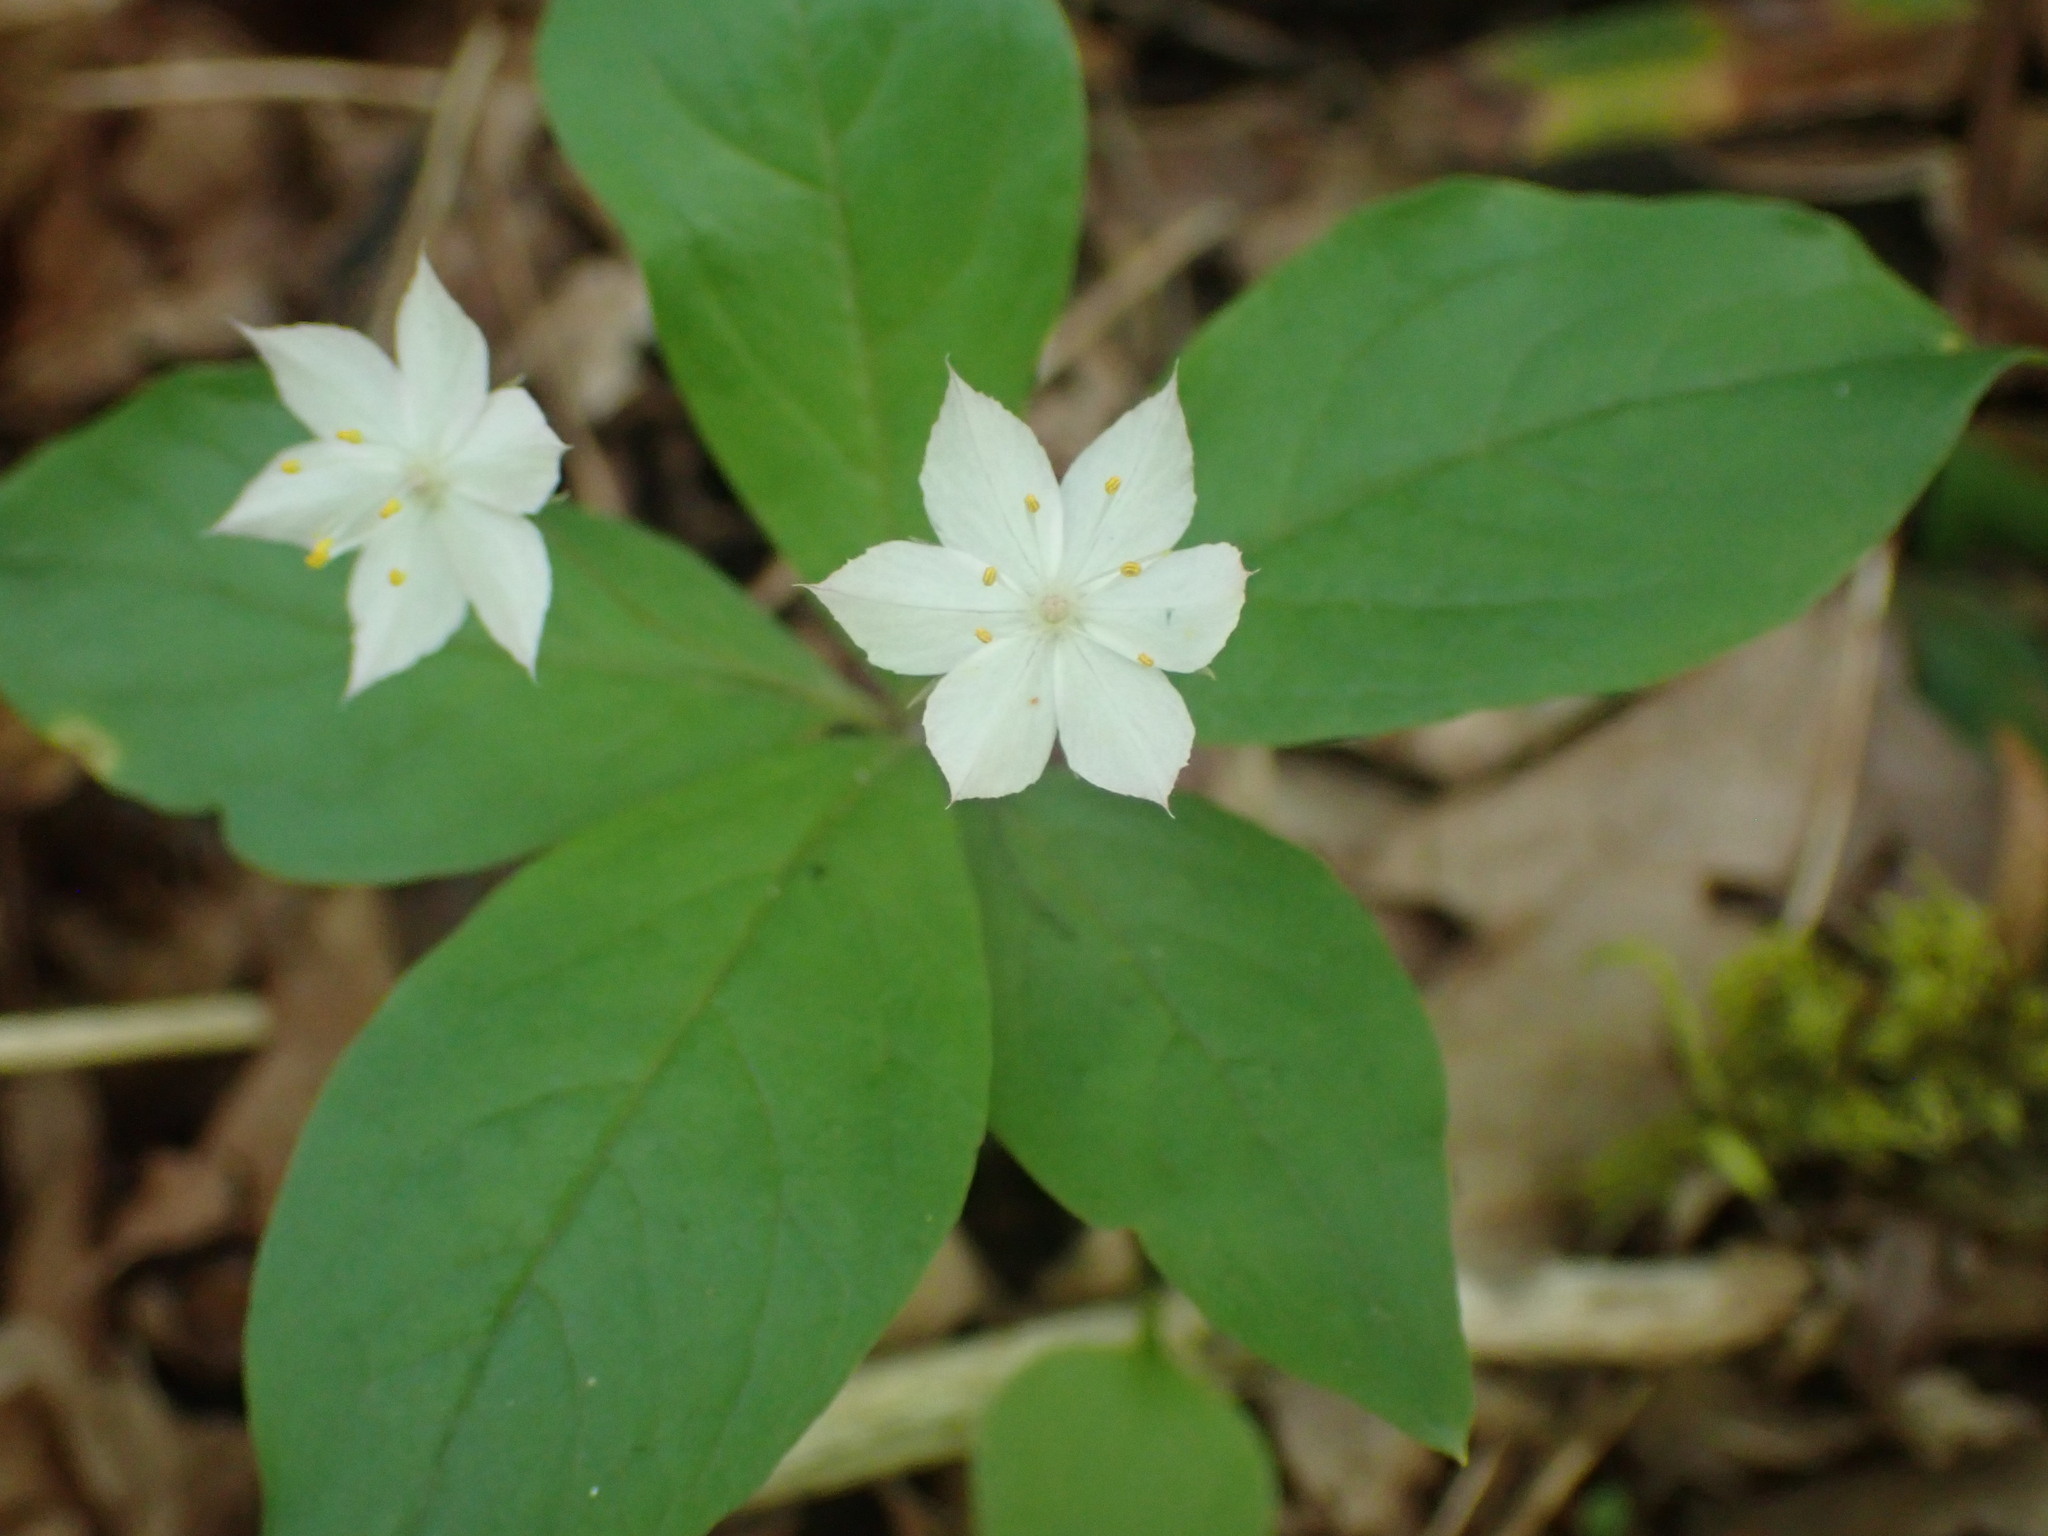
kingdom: Plantae
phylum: Tracheophyta
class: Magnoliopsida
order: Ericales
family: Primulaceae
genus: Lysimachia
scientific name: Lysimachia latifolia
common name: Pacific starflower
